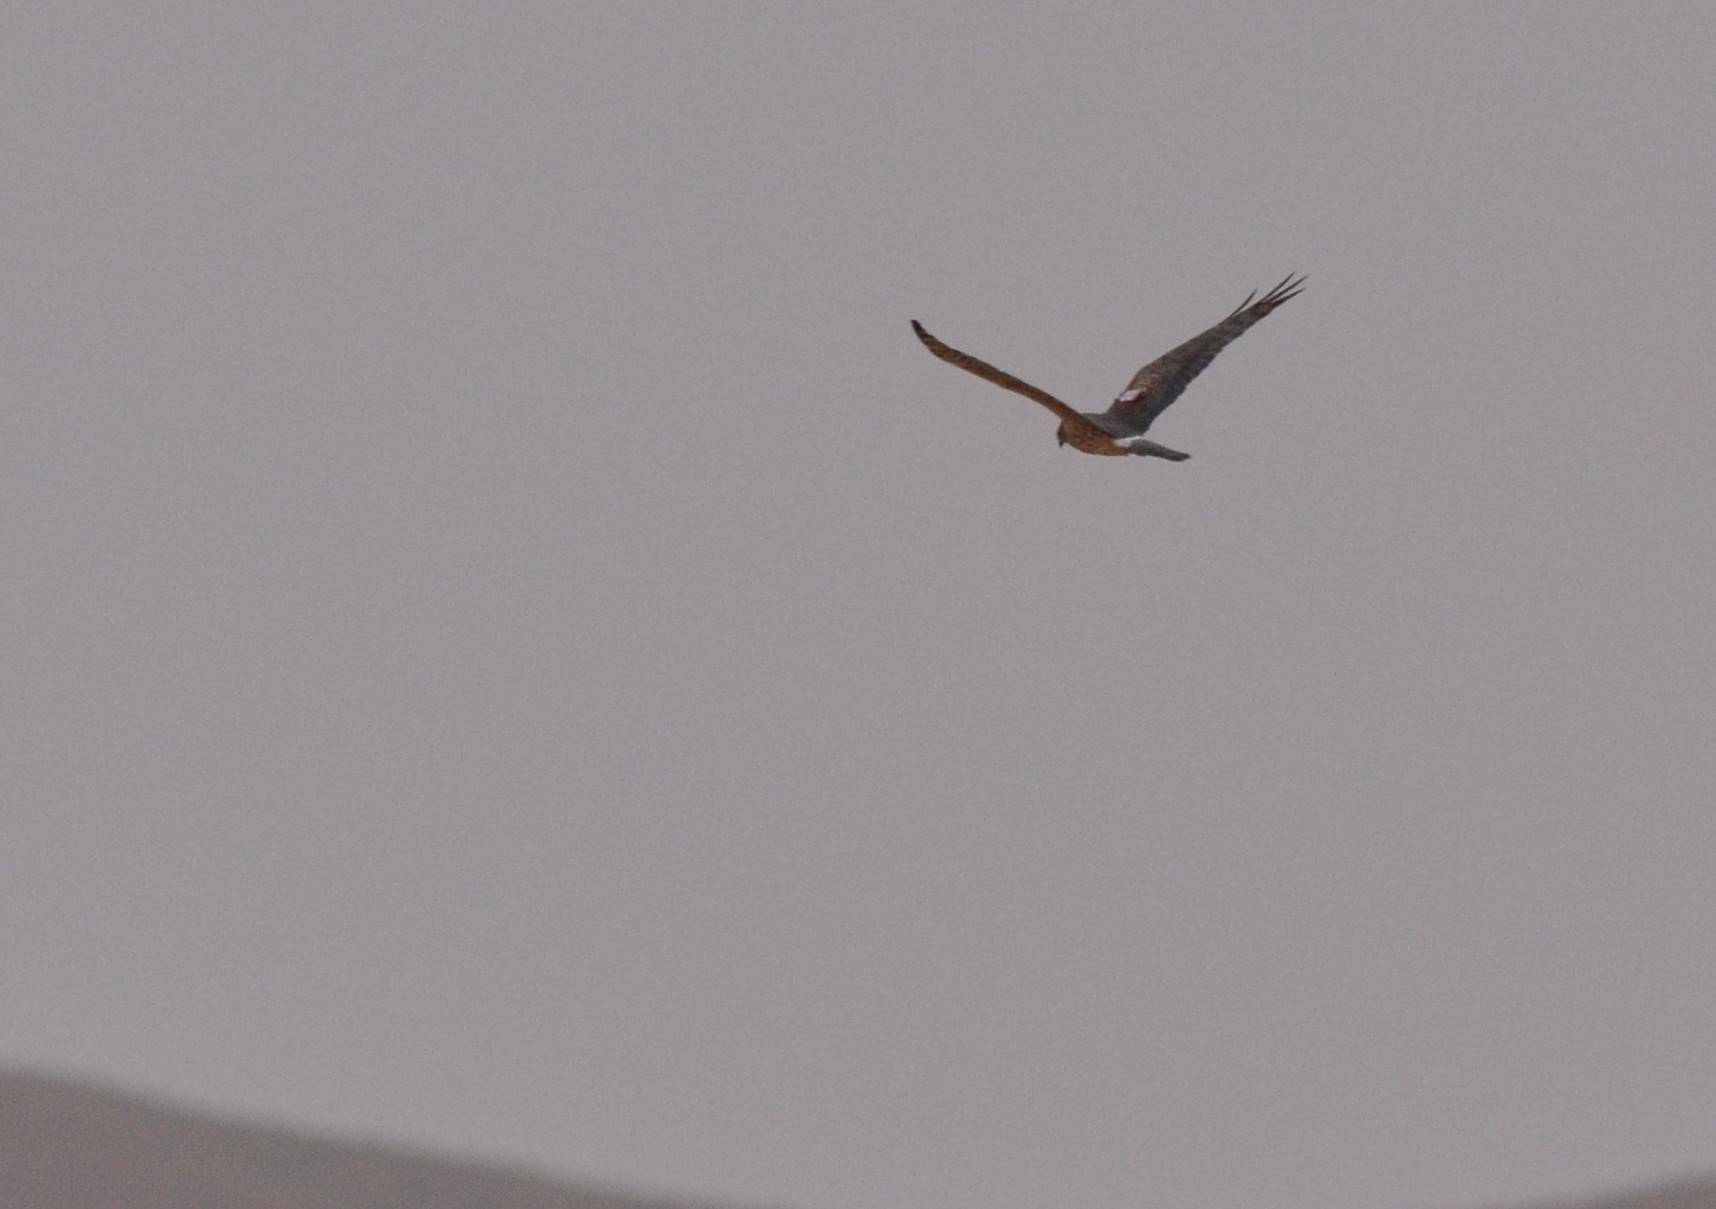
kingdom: Animalia
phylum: Chordata
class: Aves
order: Accipitriformes
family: Accipitridae
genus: Circus
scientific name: Circus pygargus
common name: Montagu's harrier
